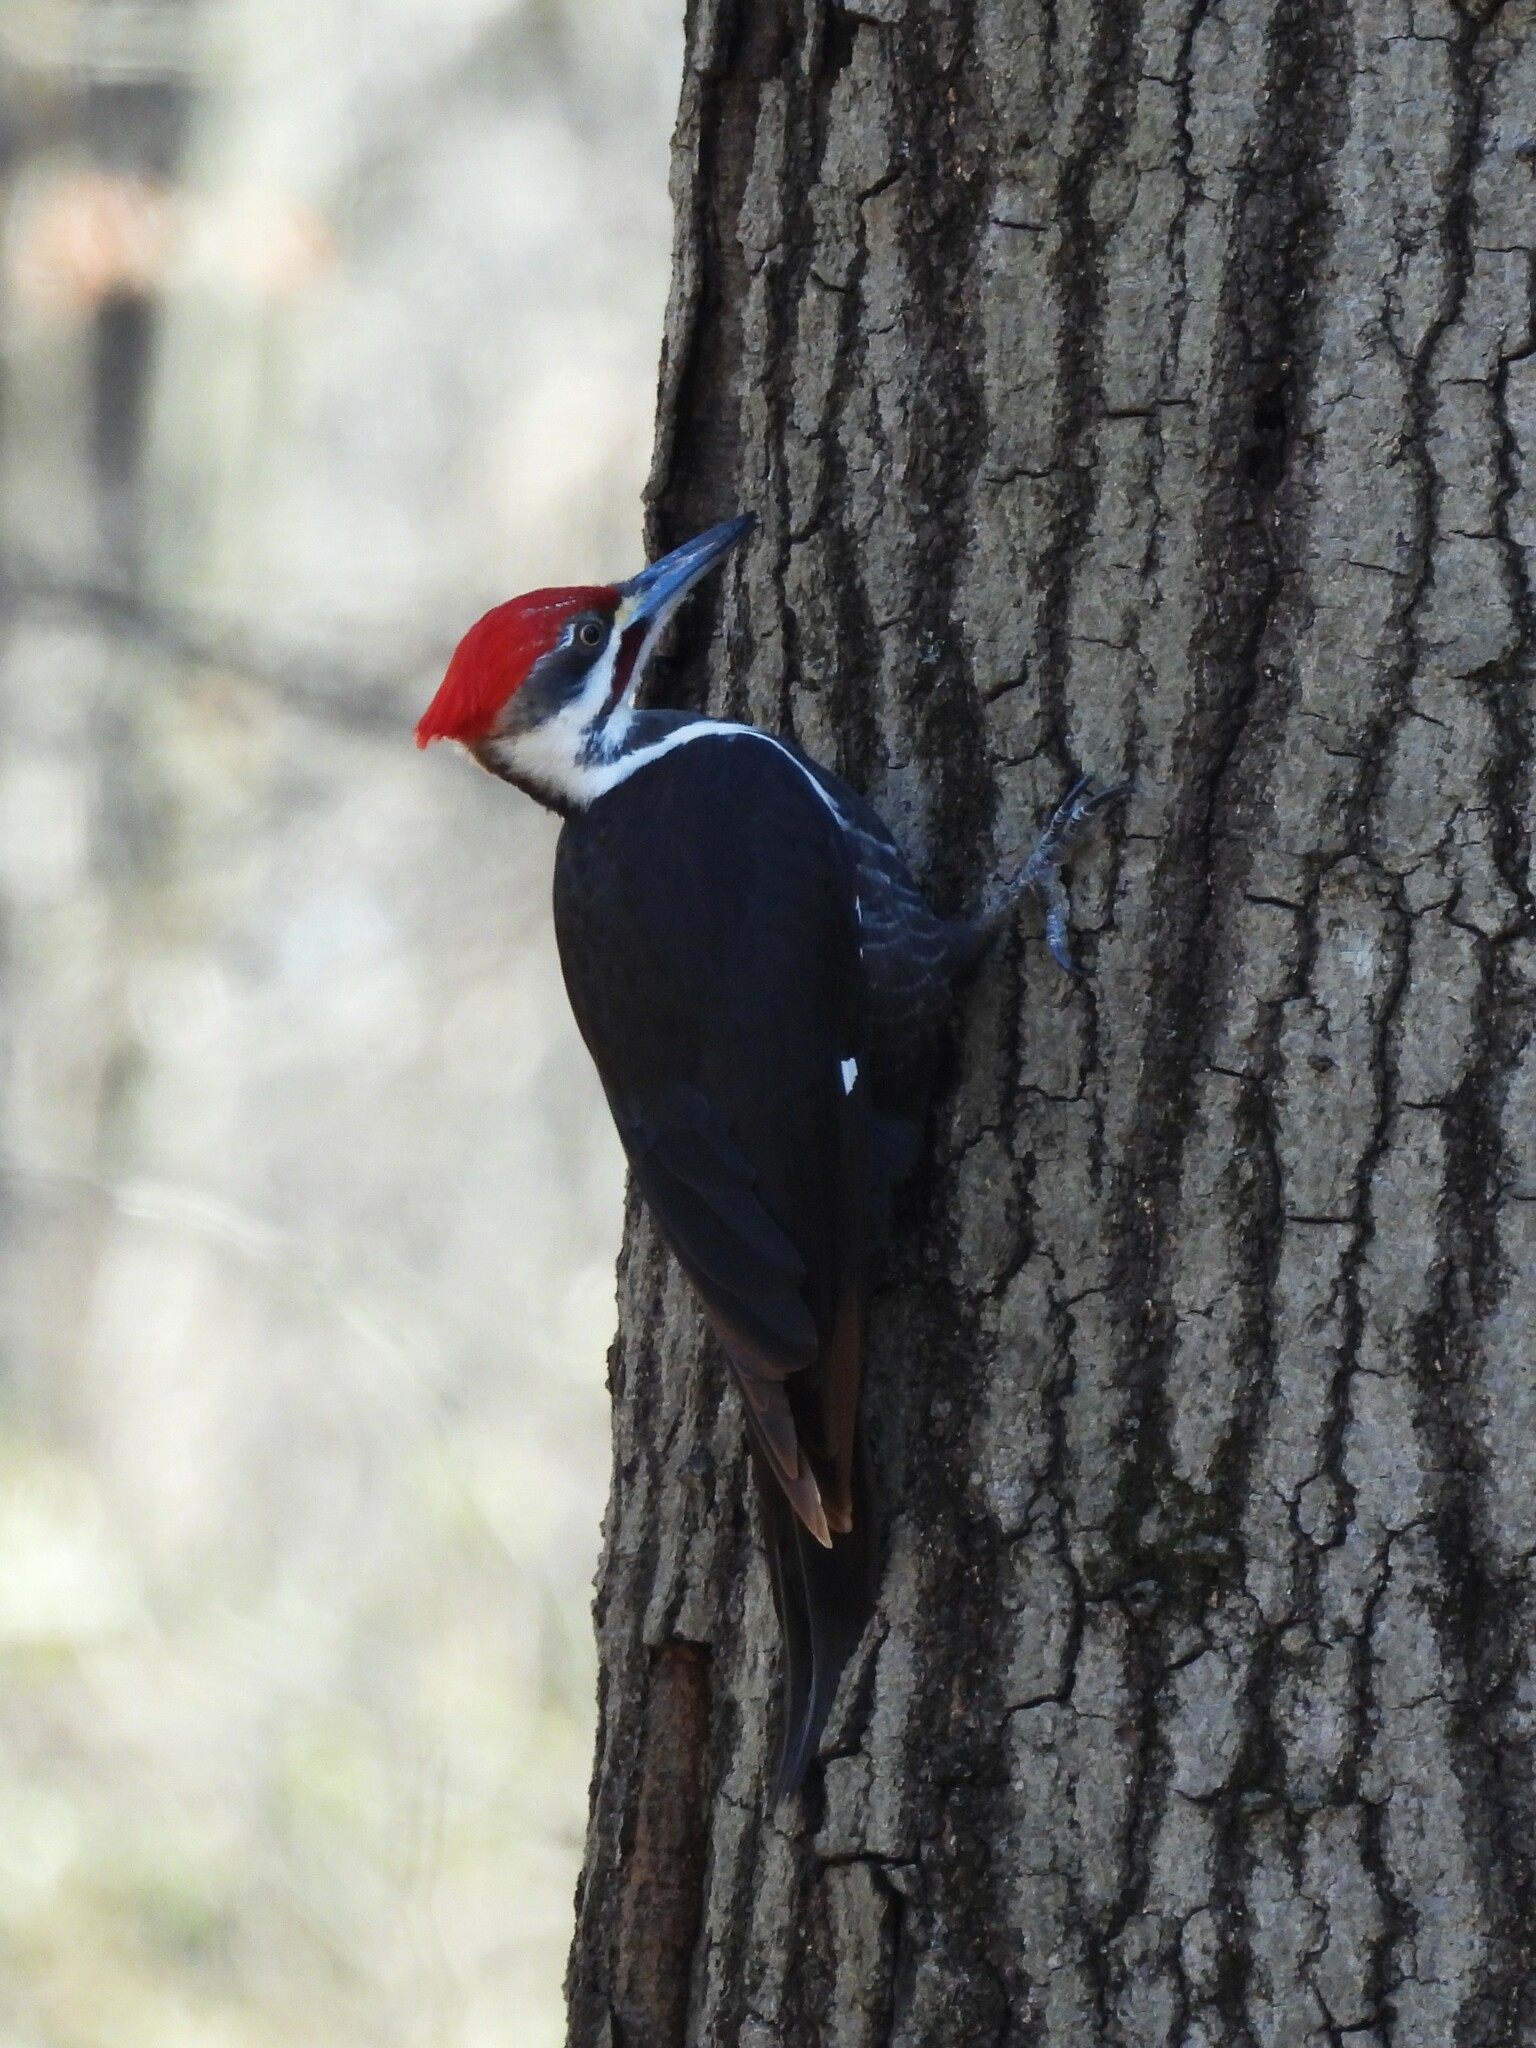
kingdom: Animalia
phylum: Chordata
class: Aves
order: Piciformes
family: Picidae
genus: Dryocopus
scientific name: Dryocopus pileatus
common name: Pileated woodpecker
